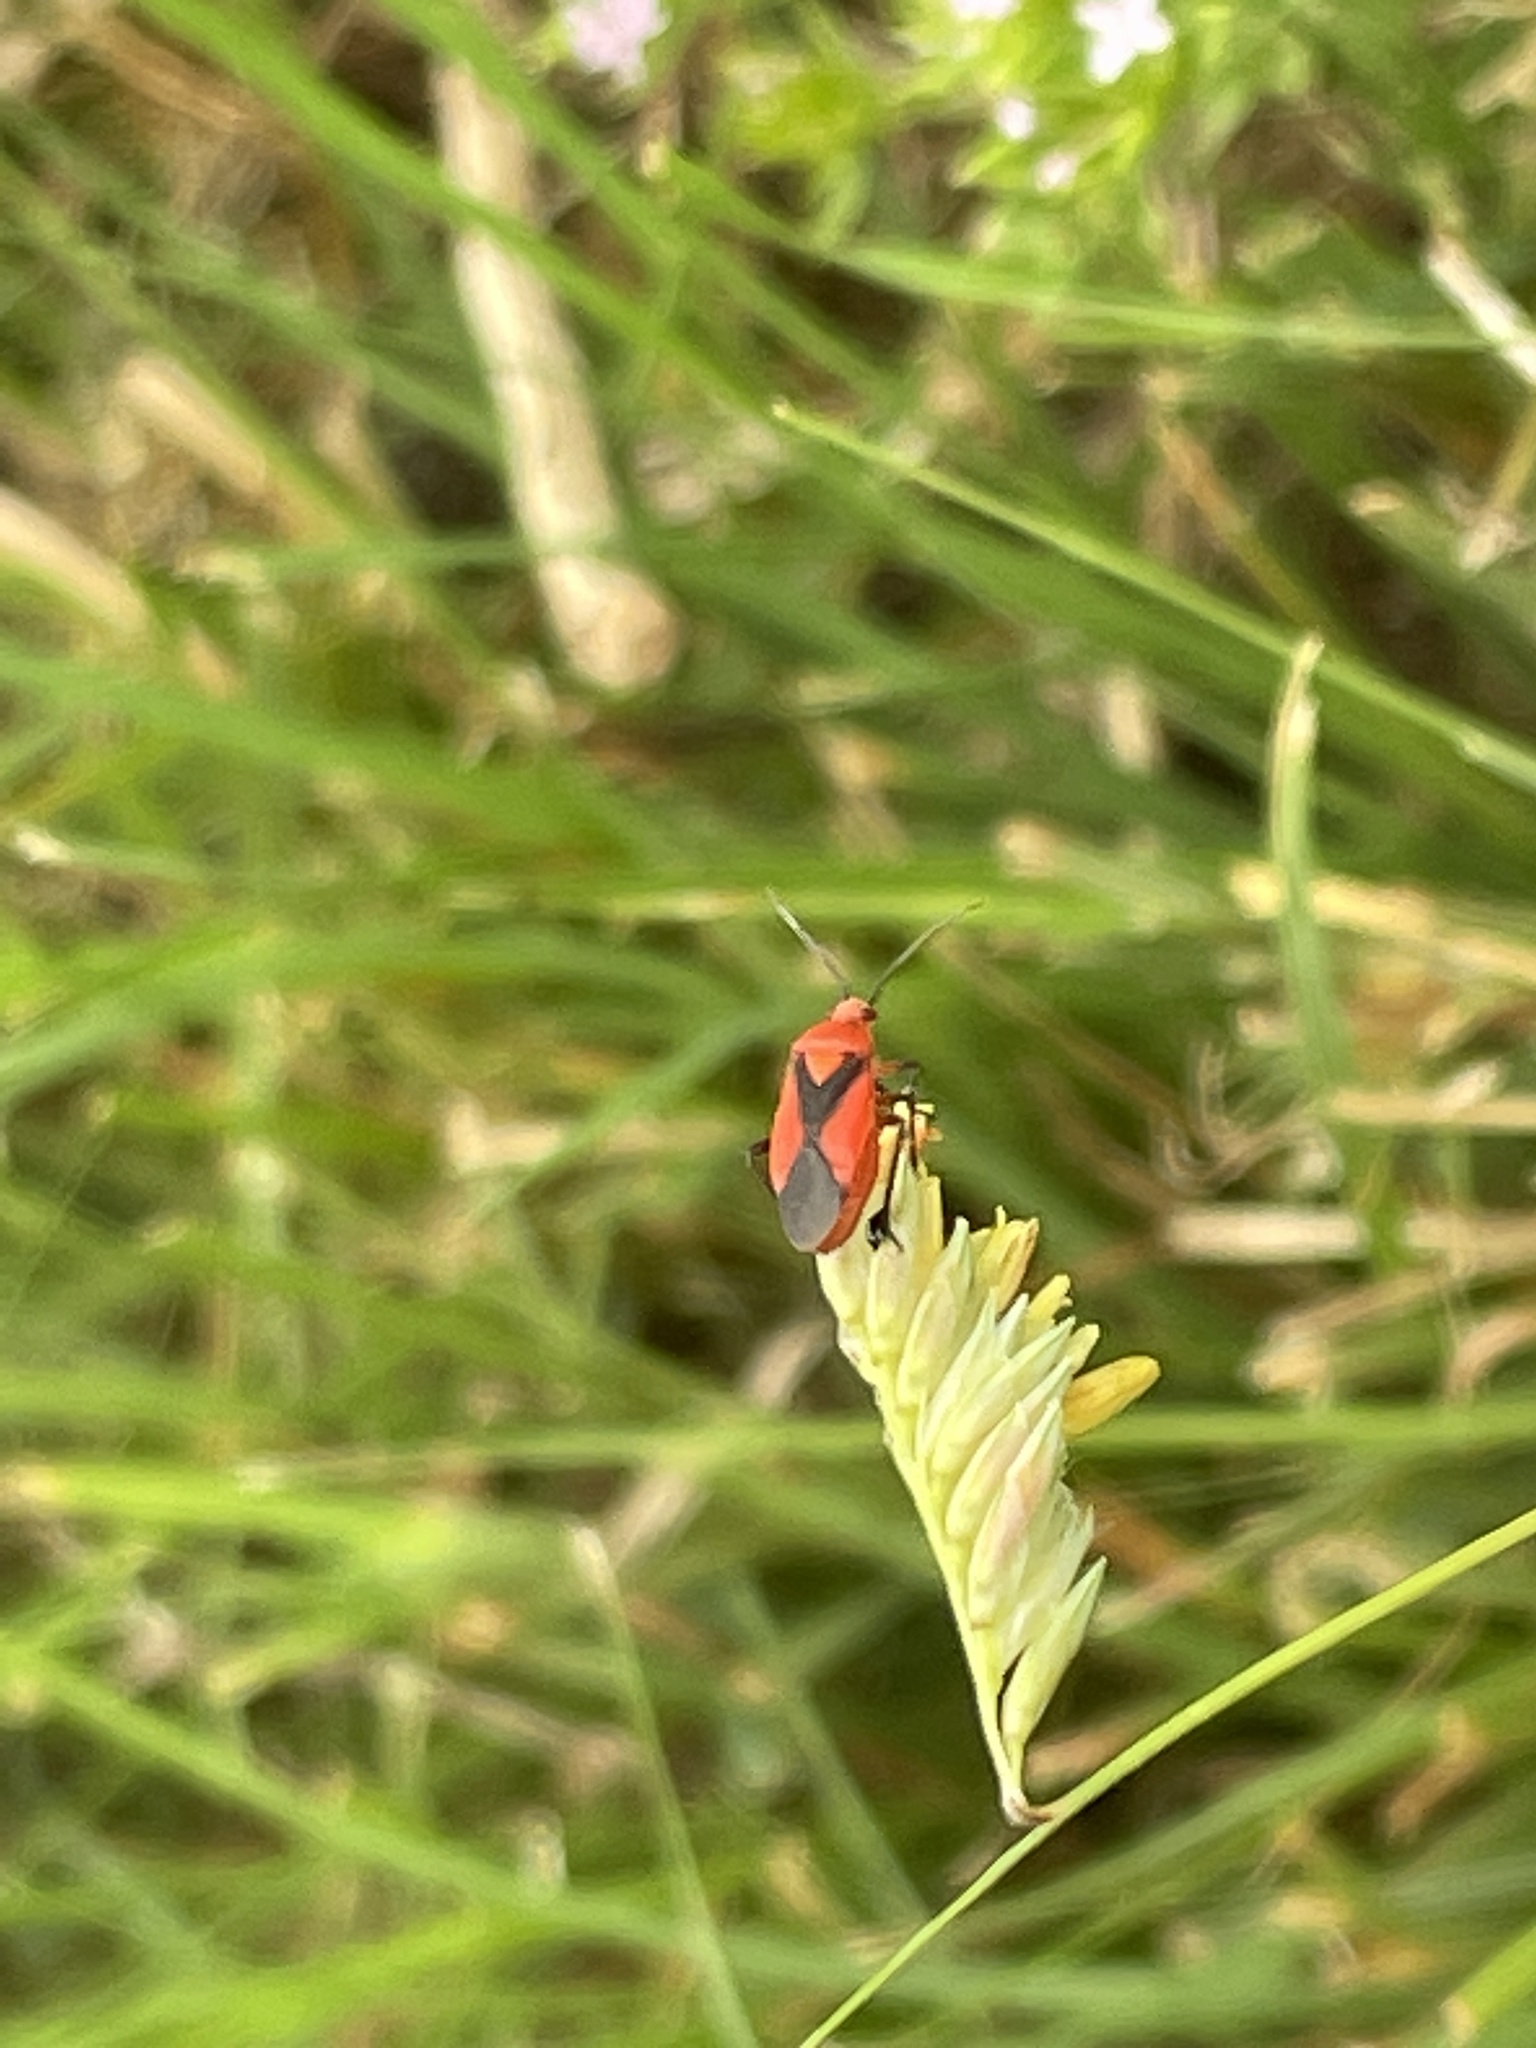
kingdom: Animalia
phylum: Arthropoda
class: Insecta
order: Hemiptera
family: Miridae
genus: Oncerometopus
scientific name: Oncerometopus nigriclavus
